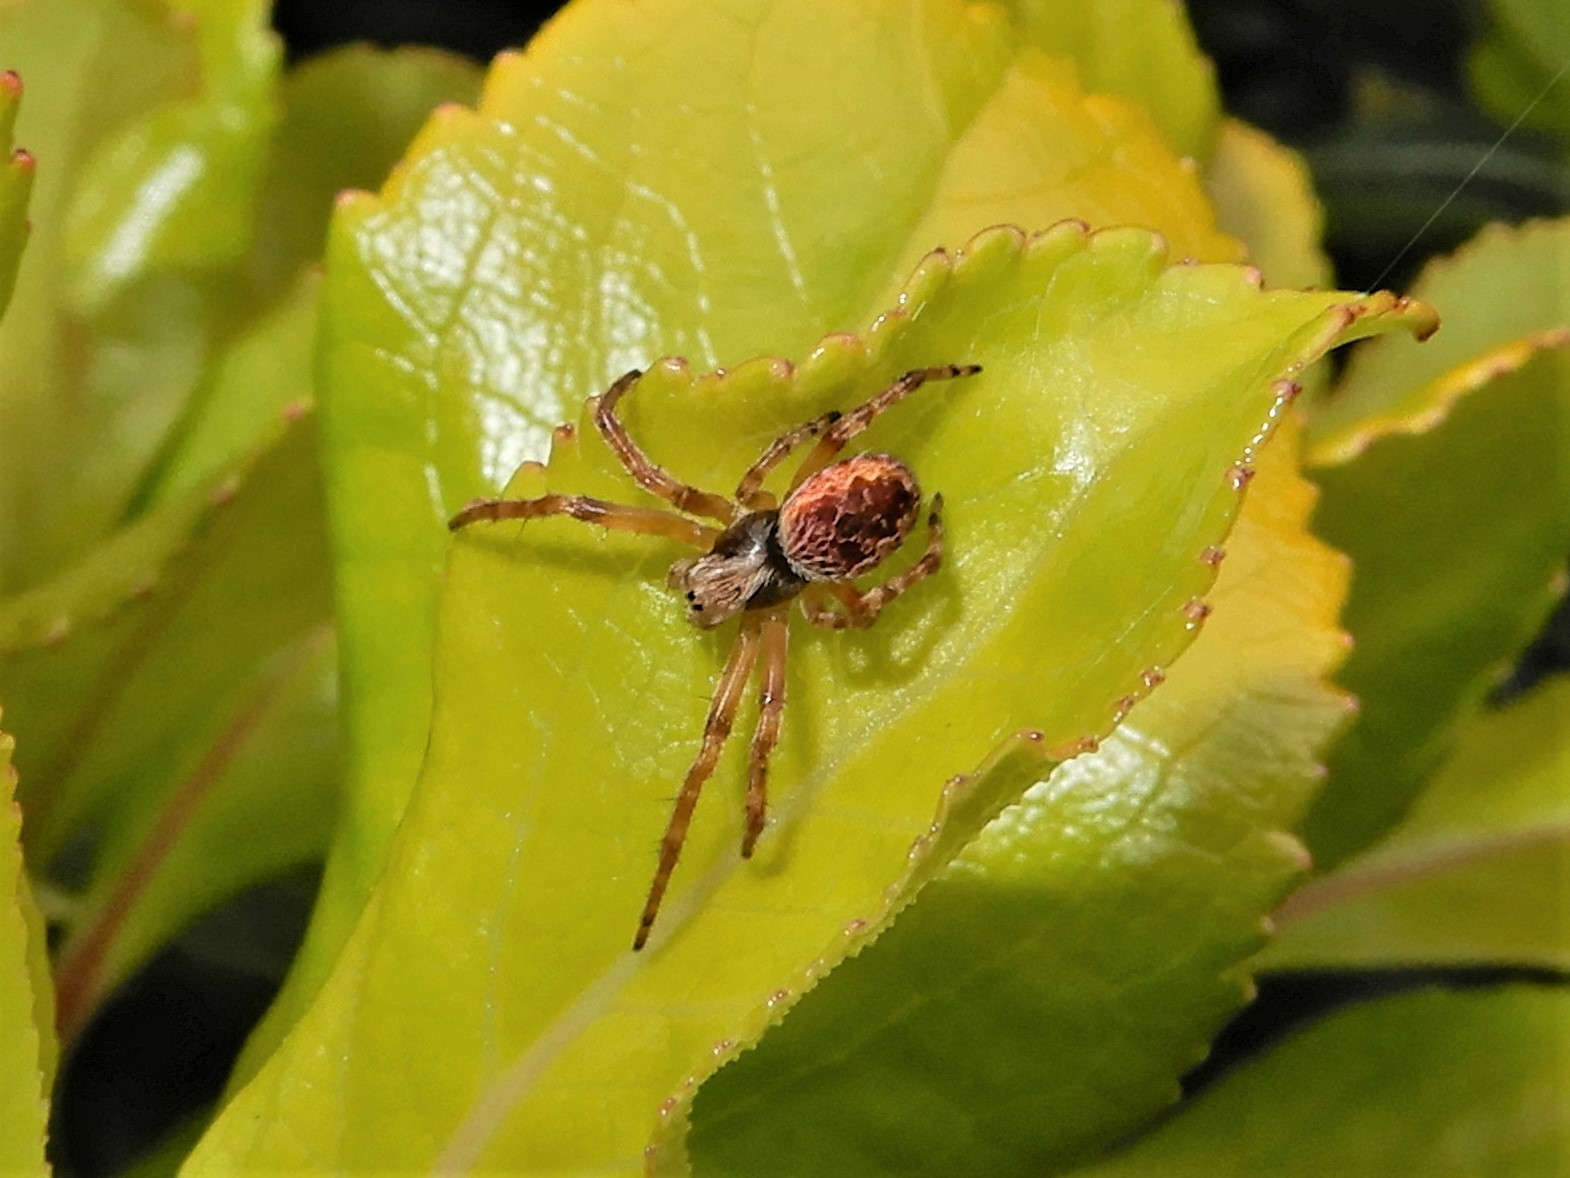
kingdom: Animalia
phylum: Arthropoda
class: Arachnida
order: Araneae
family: Araneidae
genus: Salsa
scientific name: Salsa fuliginata
